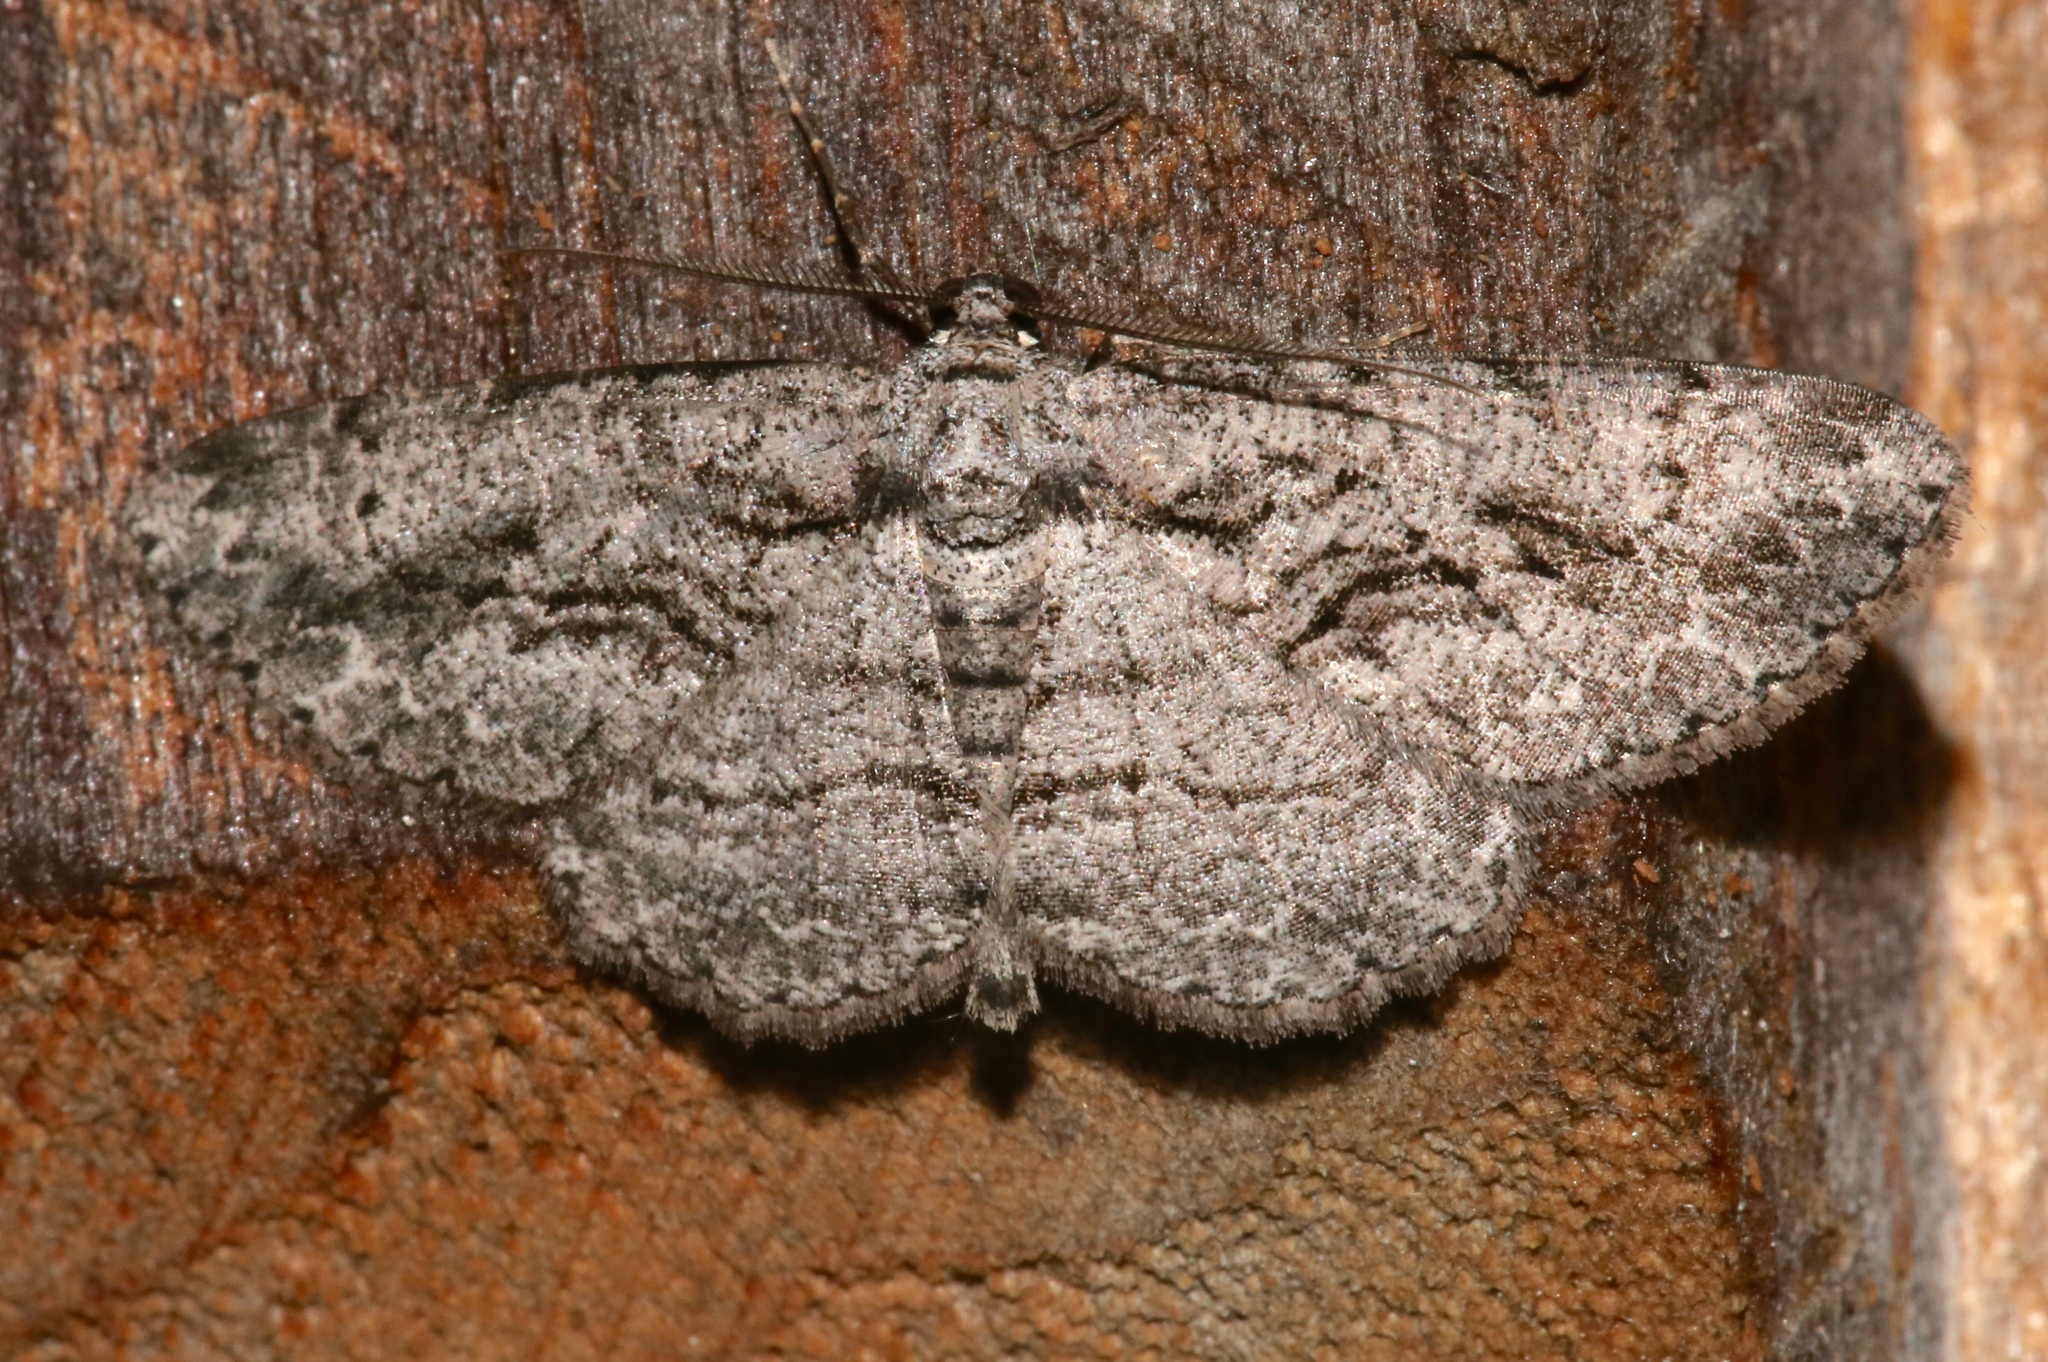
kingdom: Animalia
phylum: Arthropoda
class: Insecta
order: Lepidoptera
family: Geometridae
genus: Anavitrinella
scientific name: Anavitrinella pampinaria
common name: Common gray
